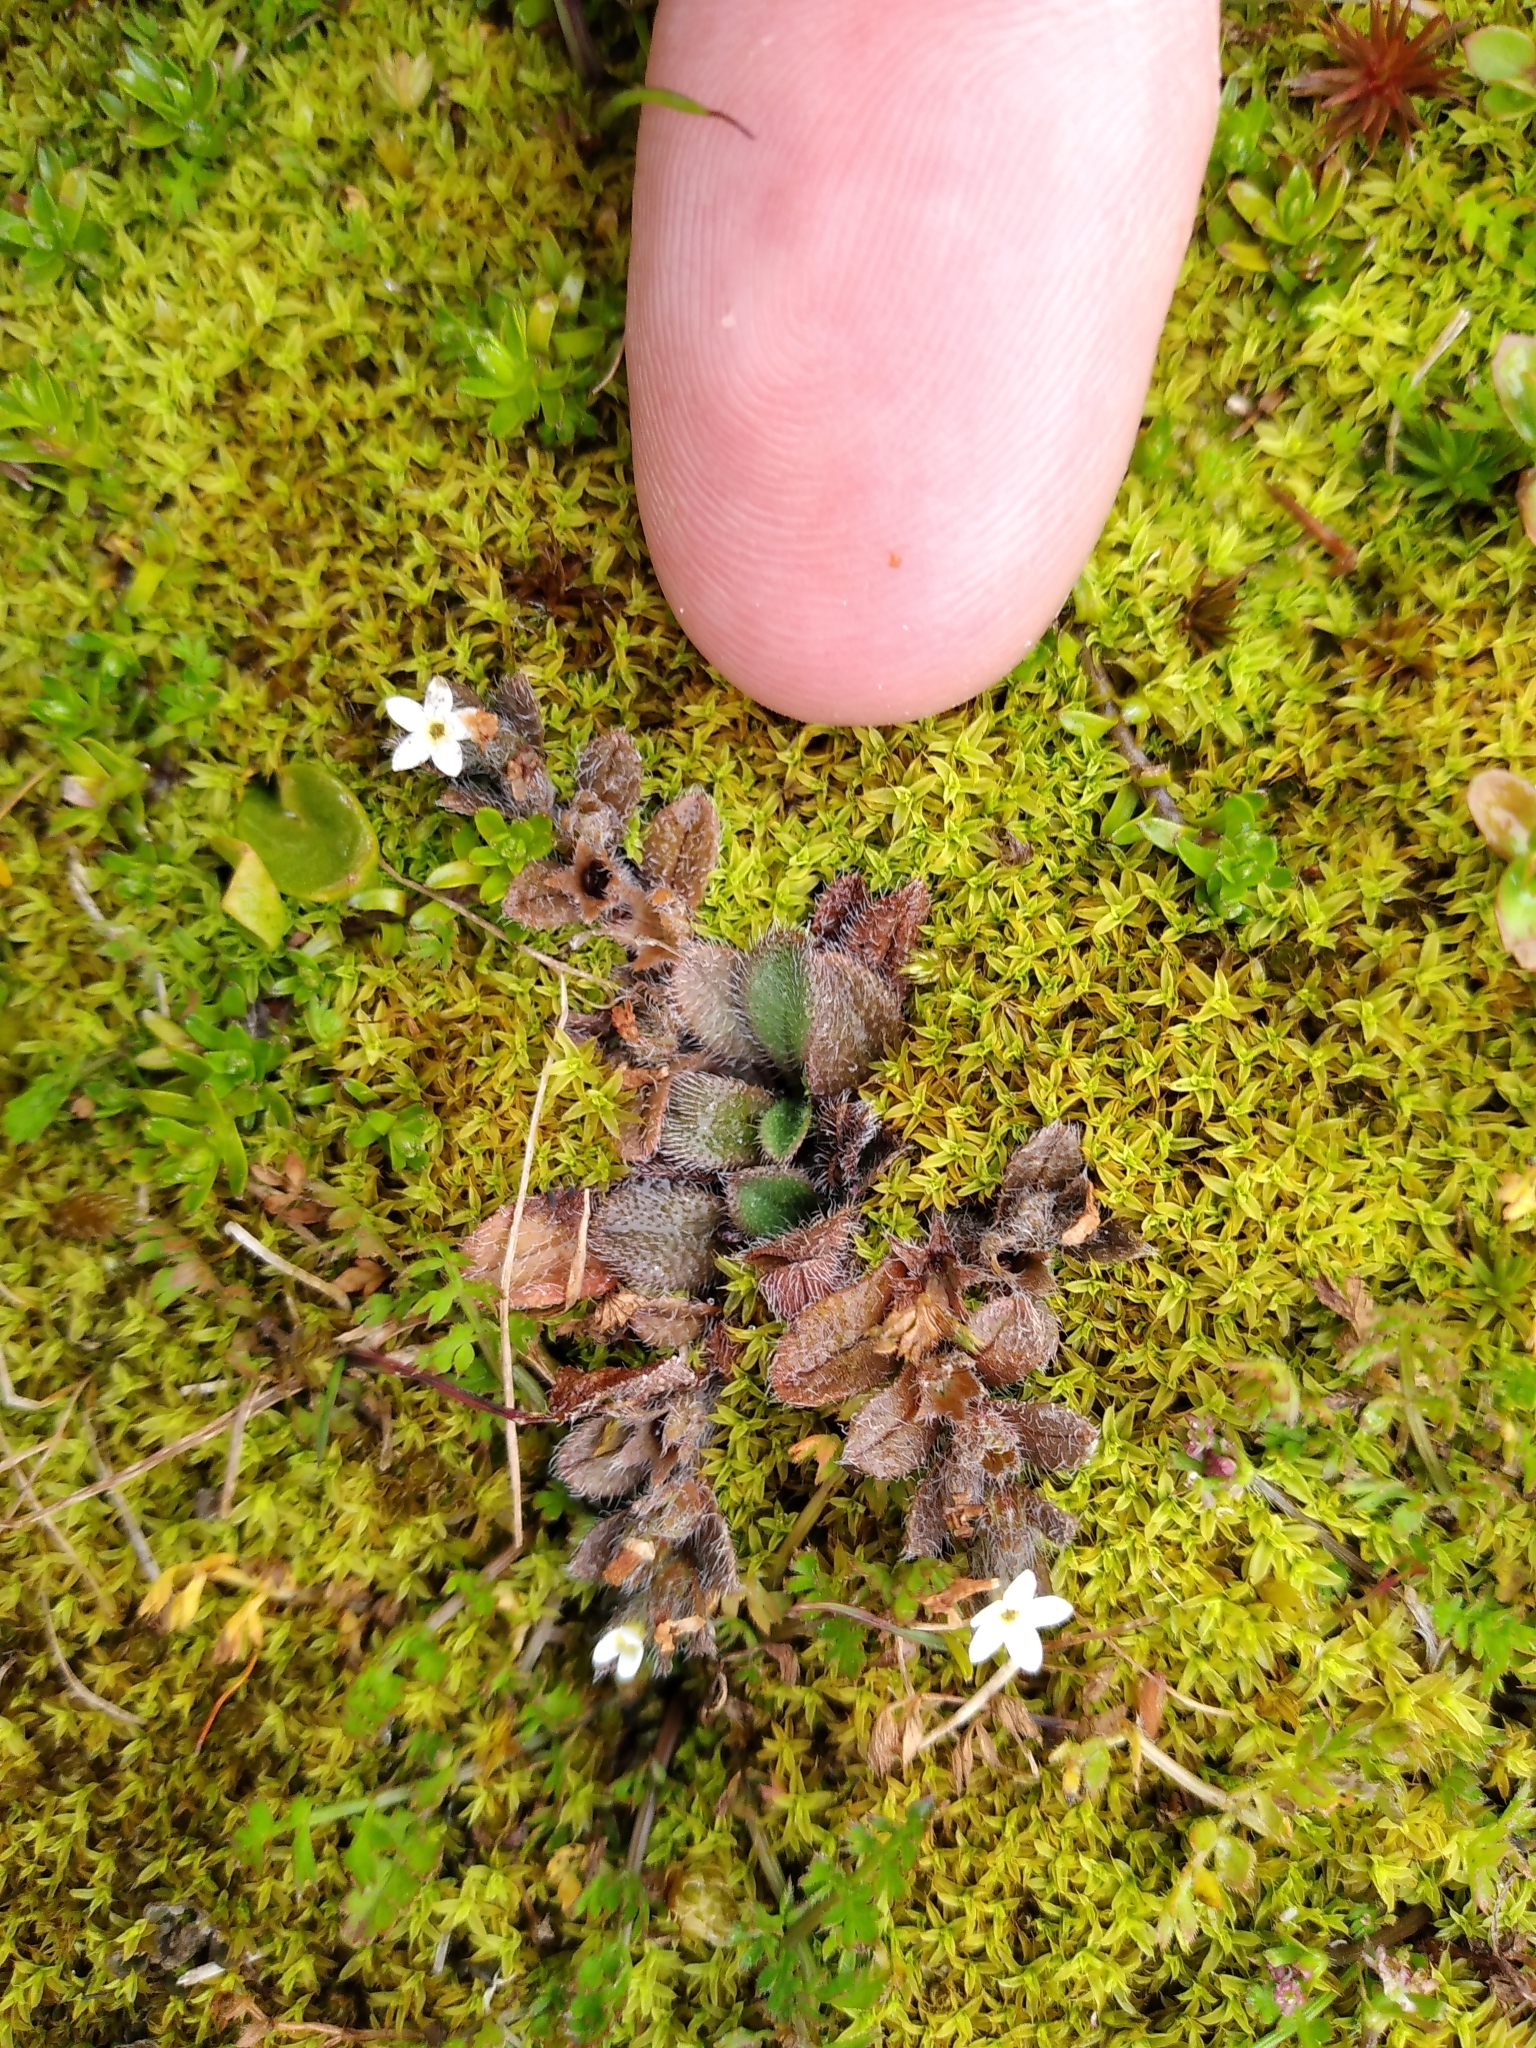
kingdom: Plantae
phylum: Tracheophyta
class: Magnoliopsida
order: Boraginales
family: Boraginaceae
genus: Myosotis
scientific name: Myosotis antarctica
